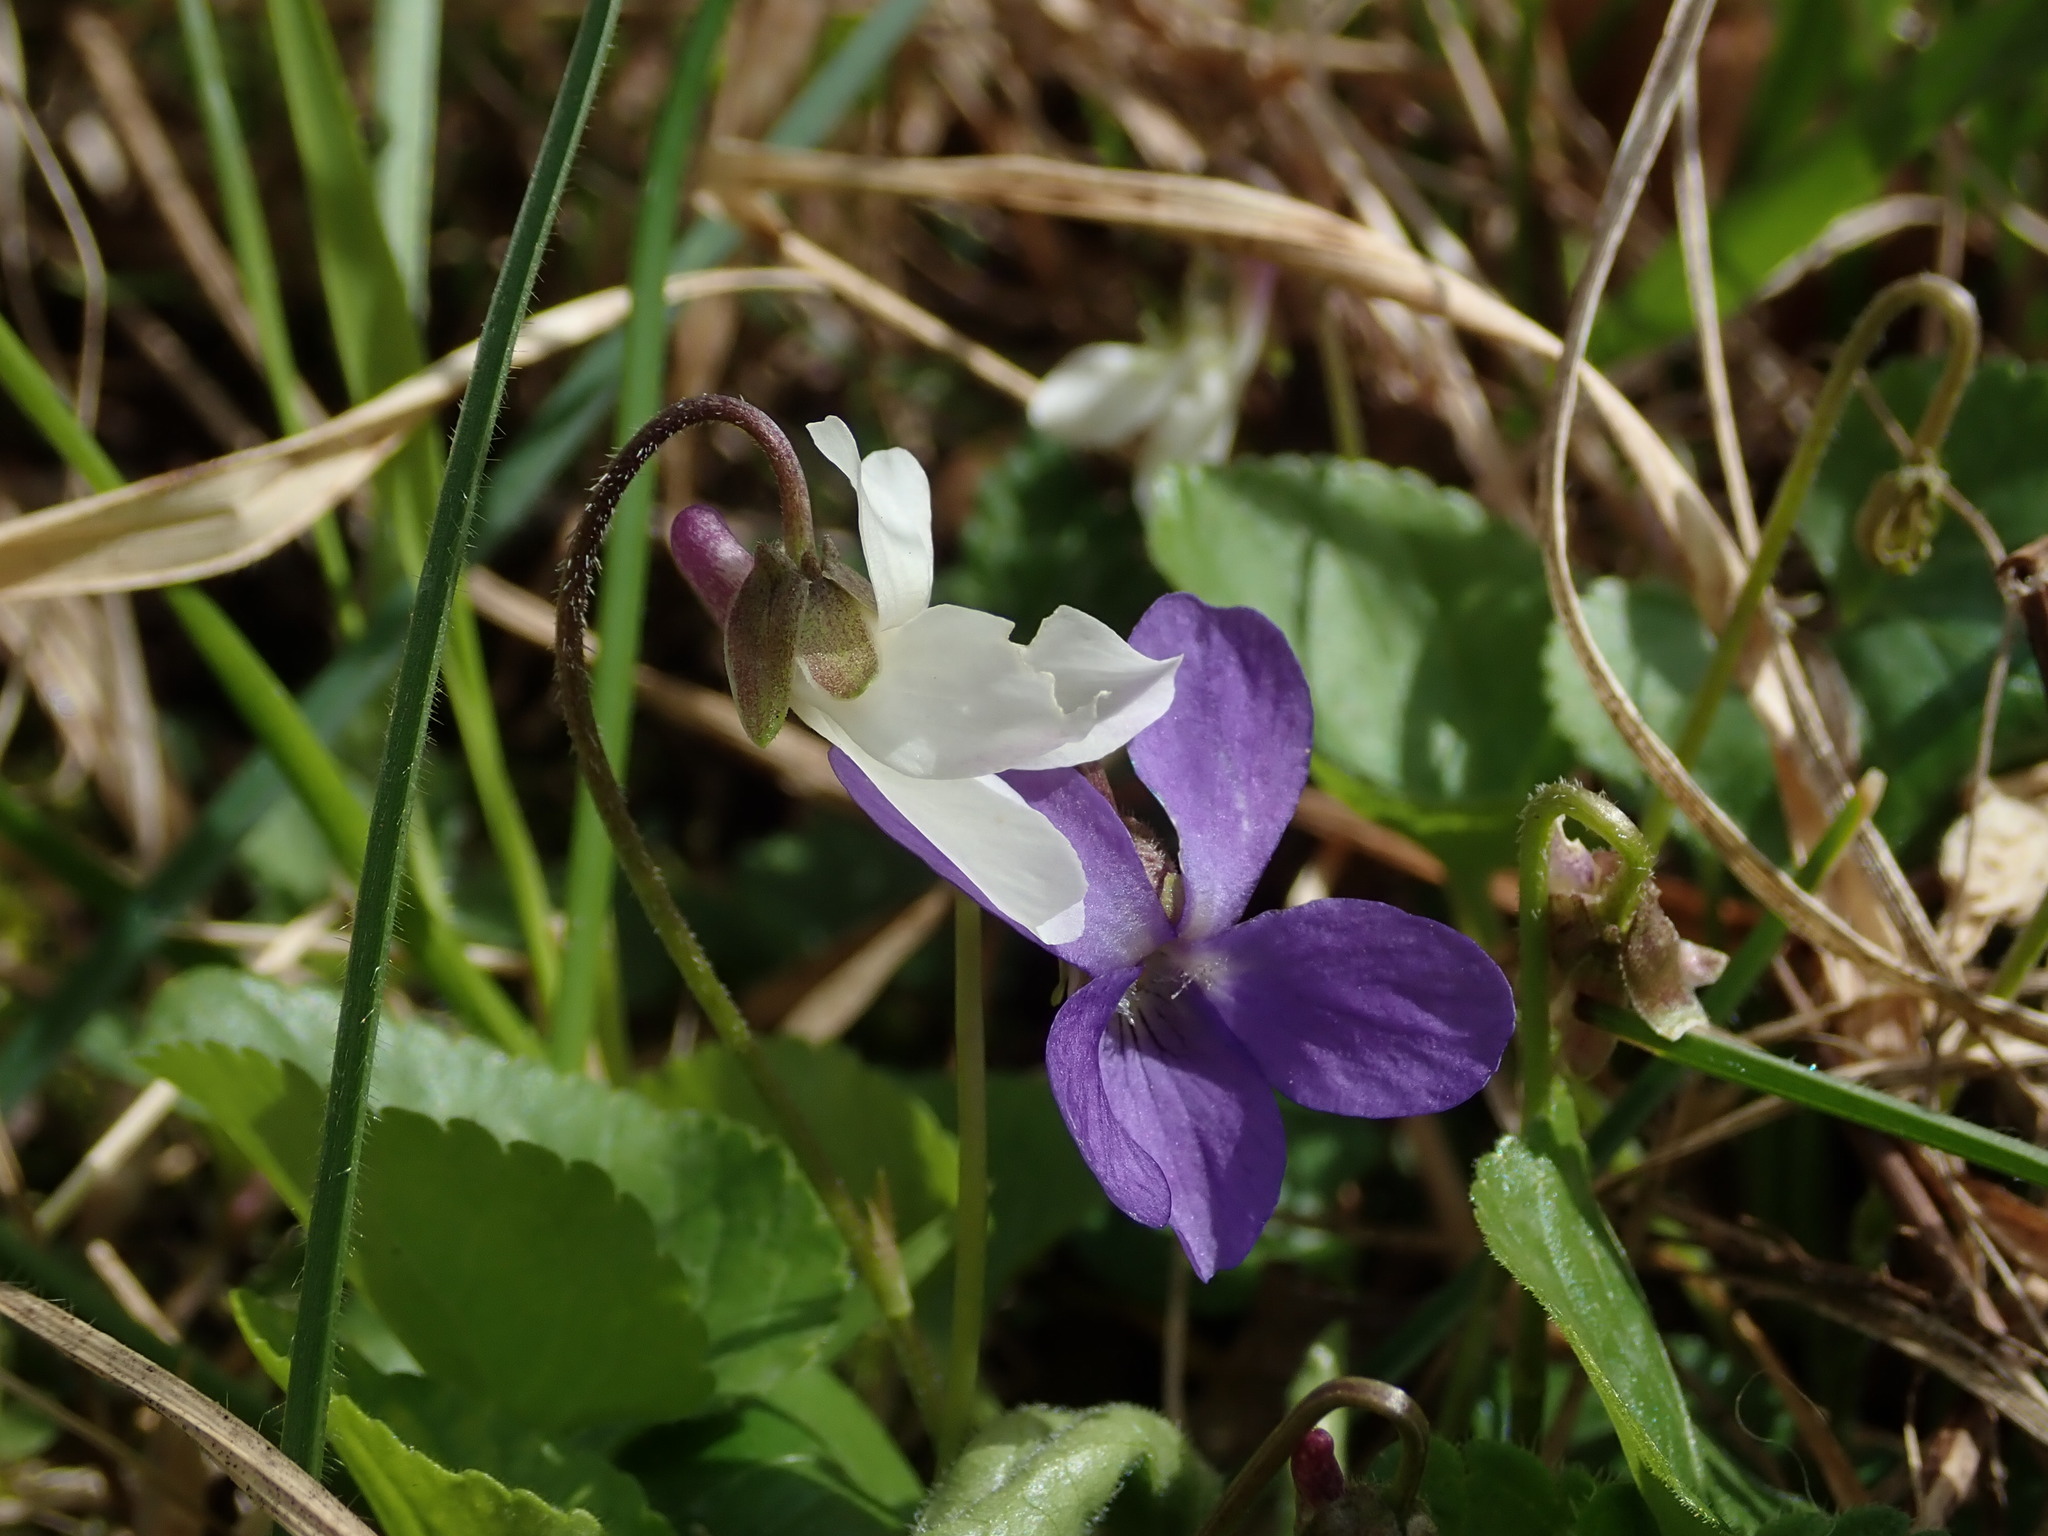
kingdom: Plantae
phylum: Tracheophyta
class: Magnoliopsida
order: Malpighiales
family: Violaceae
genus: Viola
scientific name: Viola odorata
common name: Sweet violet
